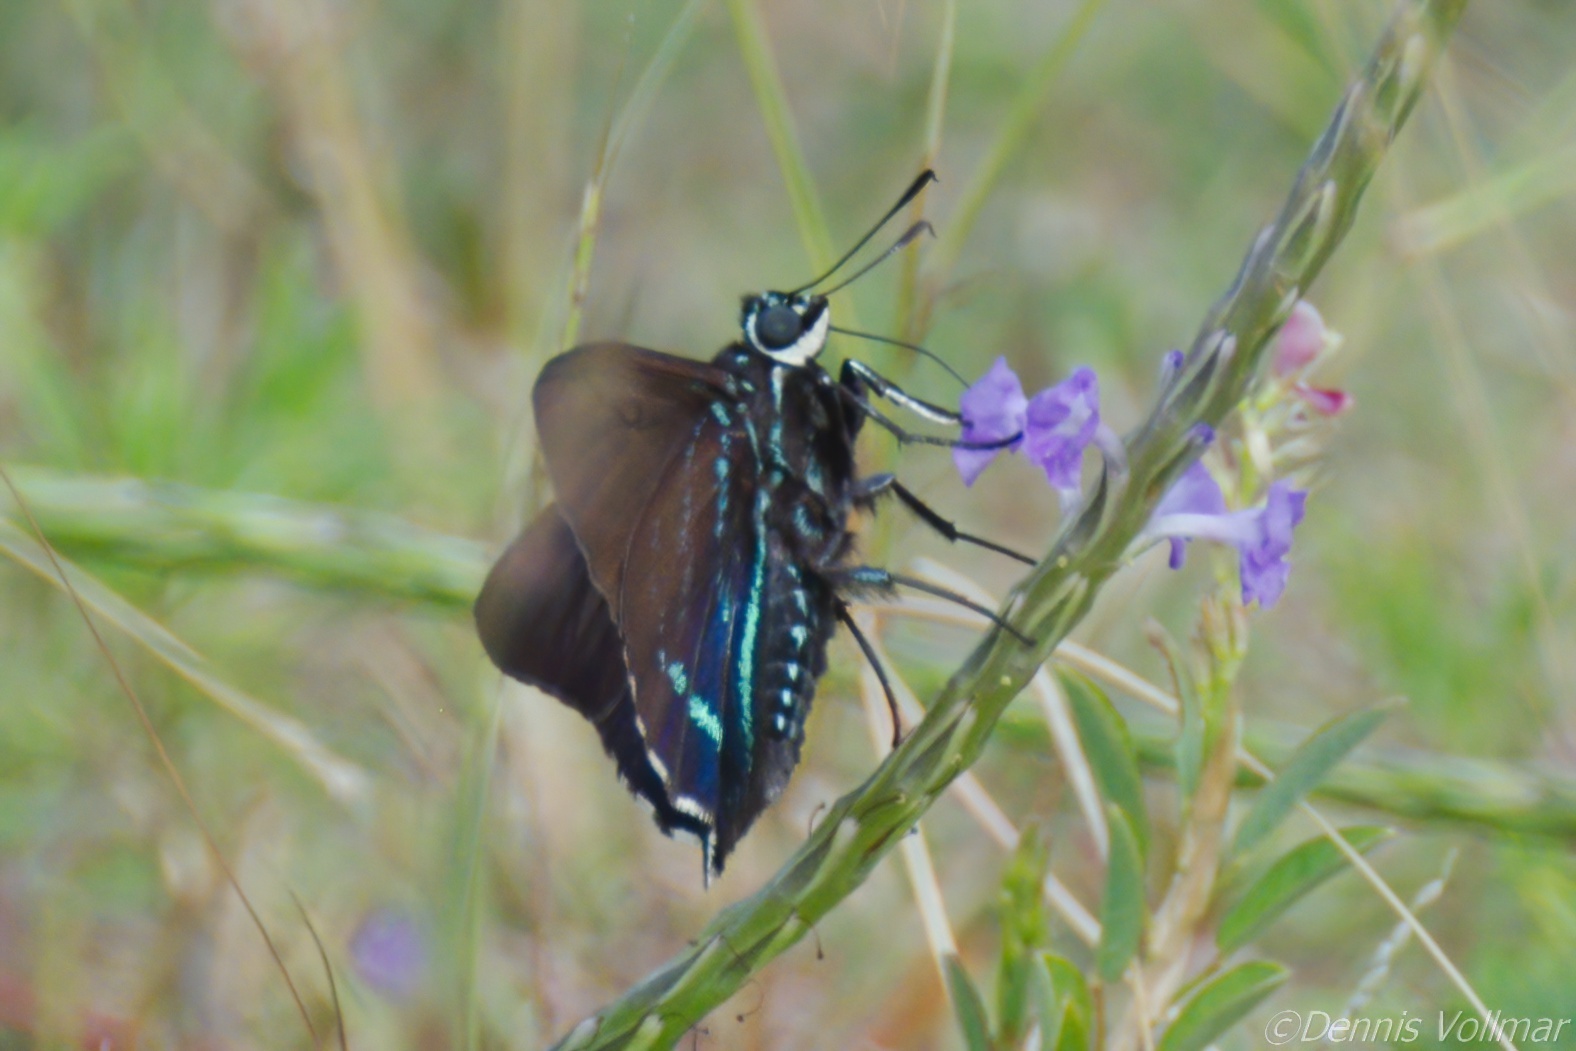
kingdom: Animalia
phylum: Arthropoda
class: Insecta
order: Lepidoptera
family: Hesperiidae
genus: Phocides
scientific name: Phocides pigmalion
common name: Mangrove skipper
